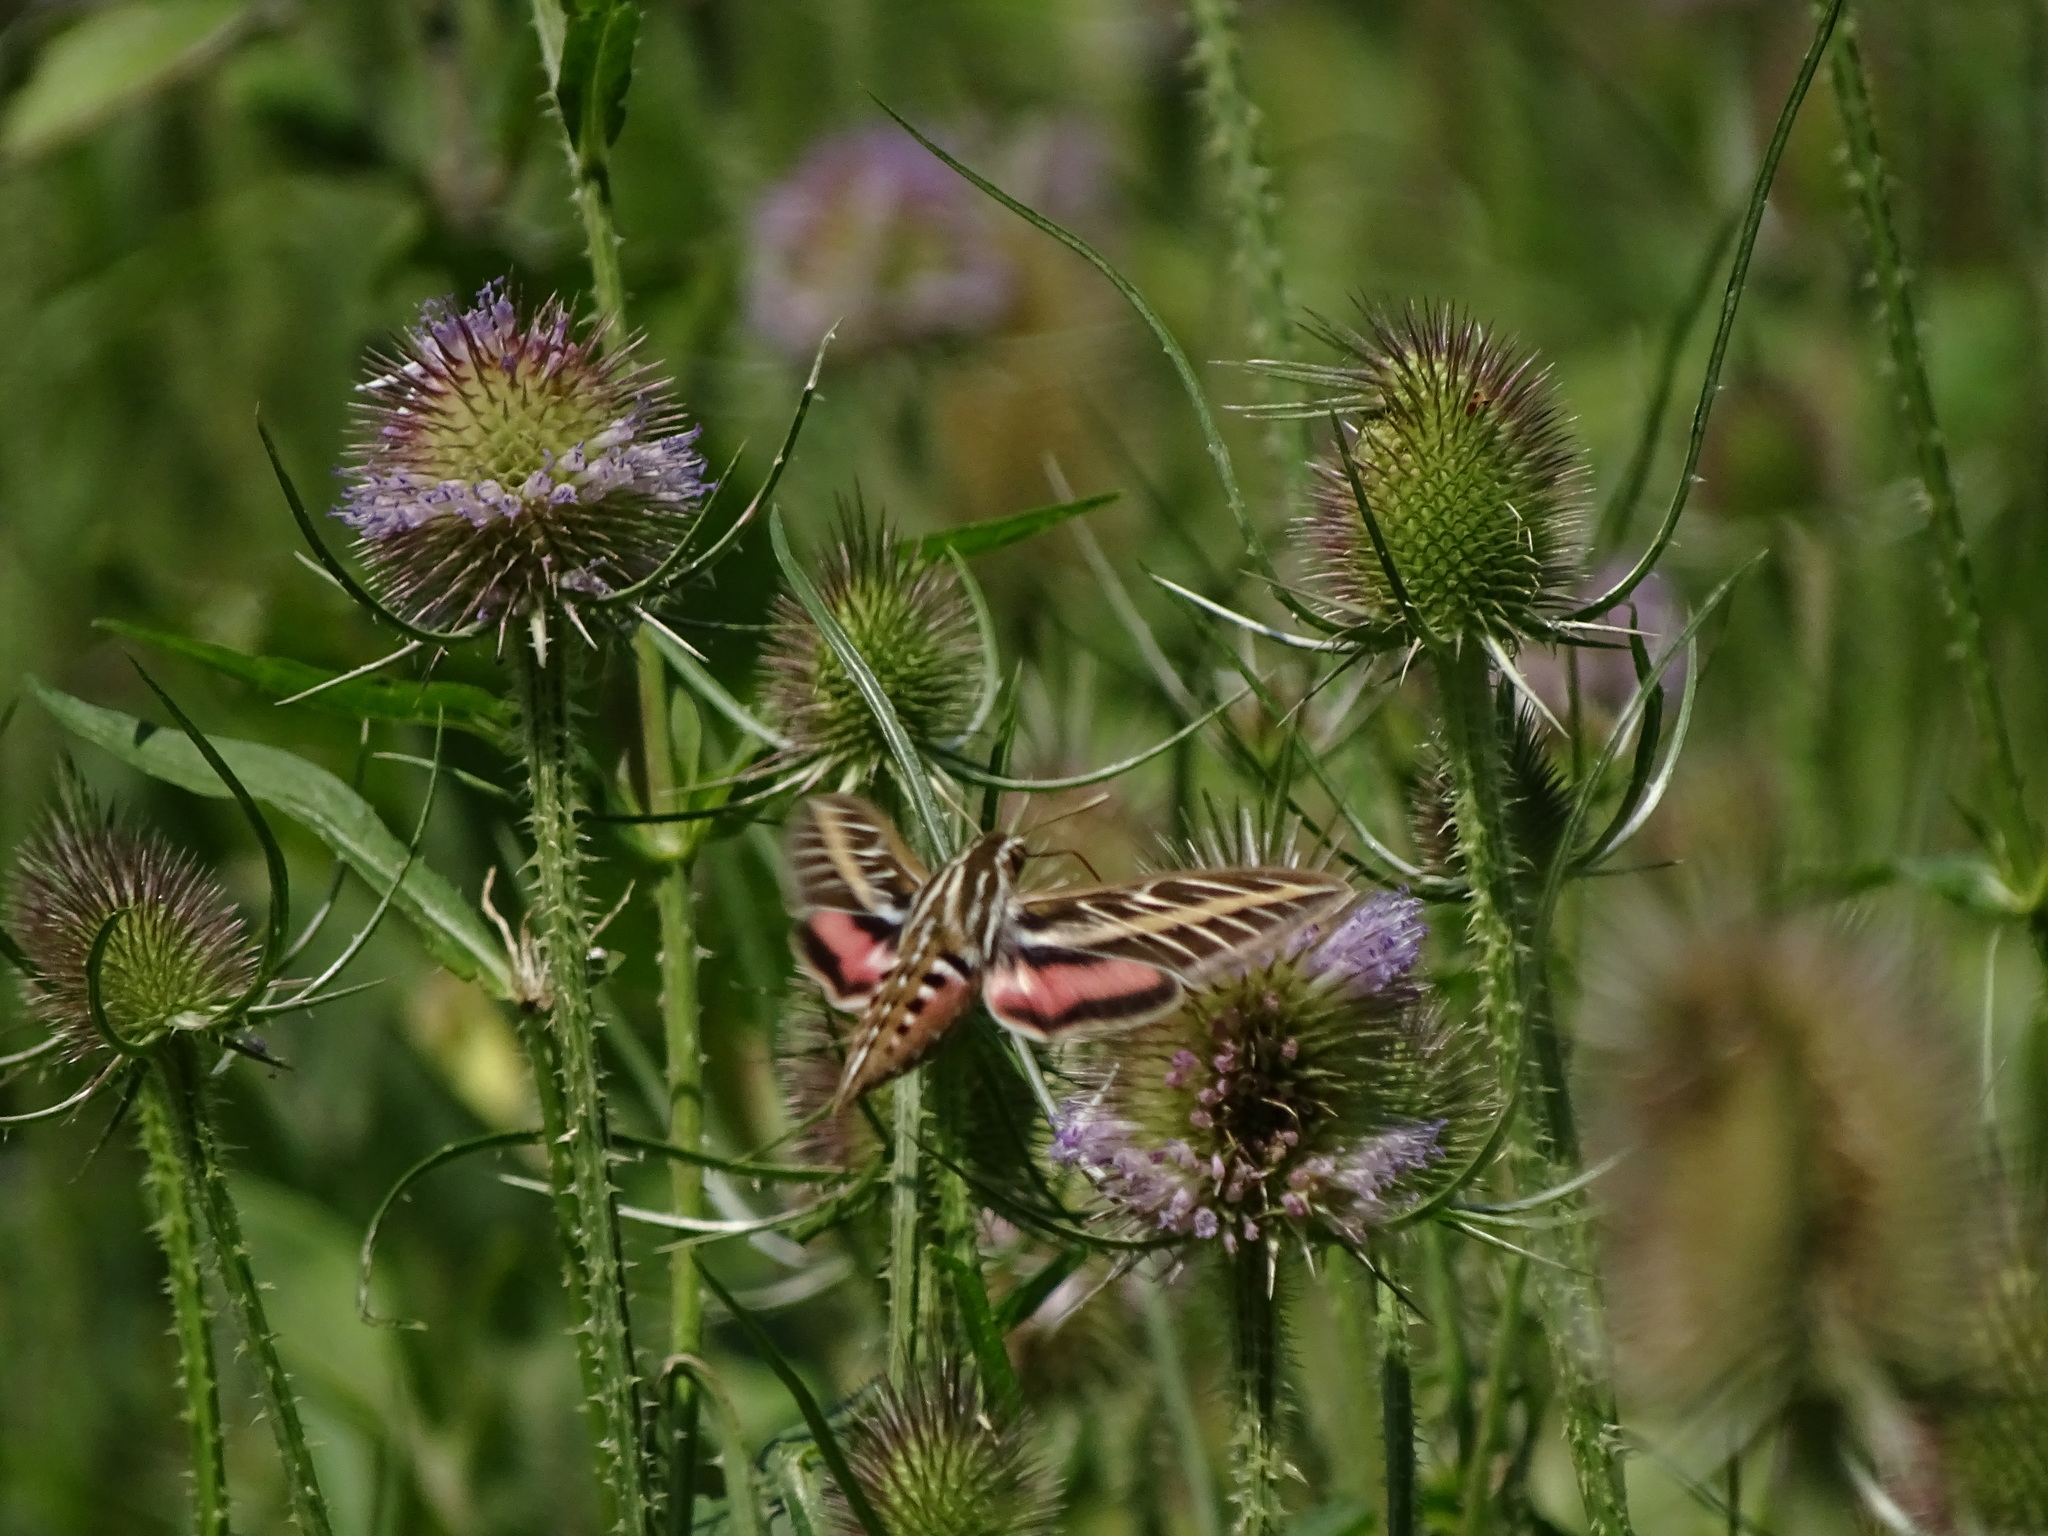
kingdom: Animalia
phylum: Arthropoda
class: Insecta
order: Lepidoptera
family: Sphingidae
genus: Hyles
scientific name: Hyles lineata
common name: White-lined sphinx
